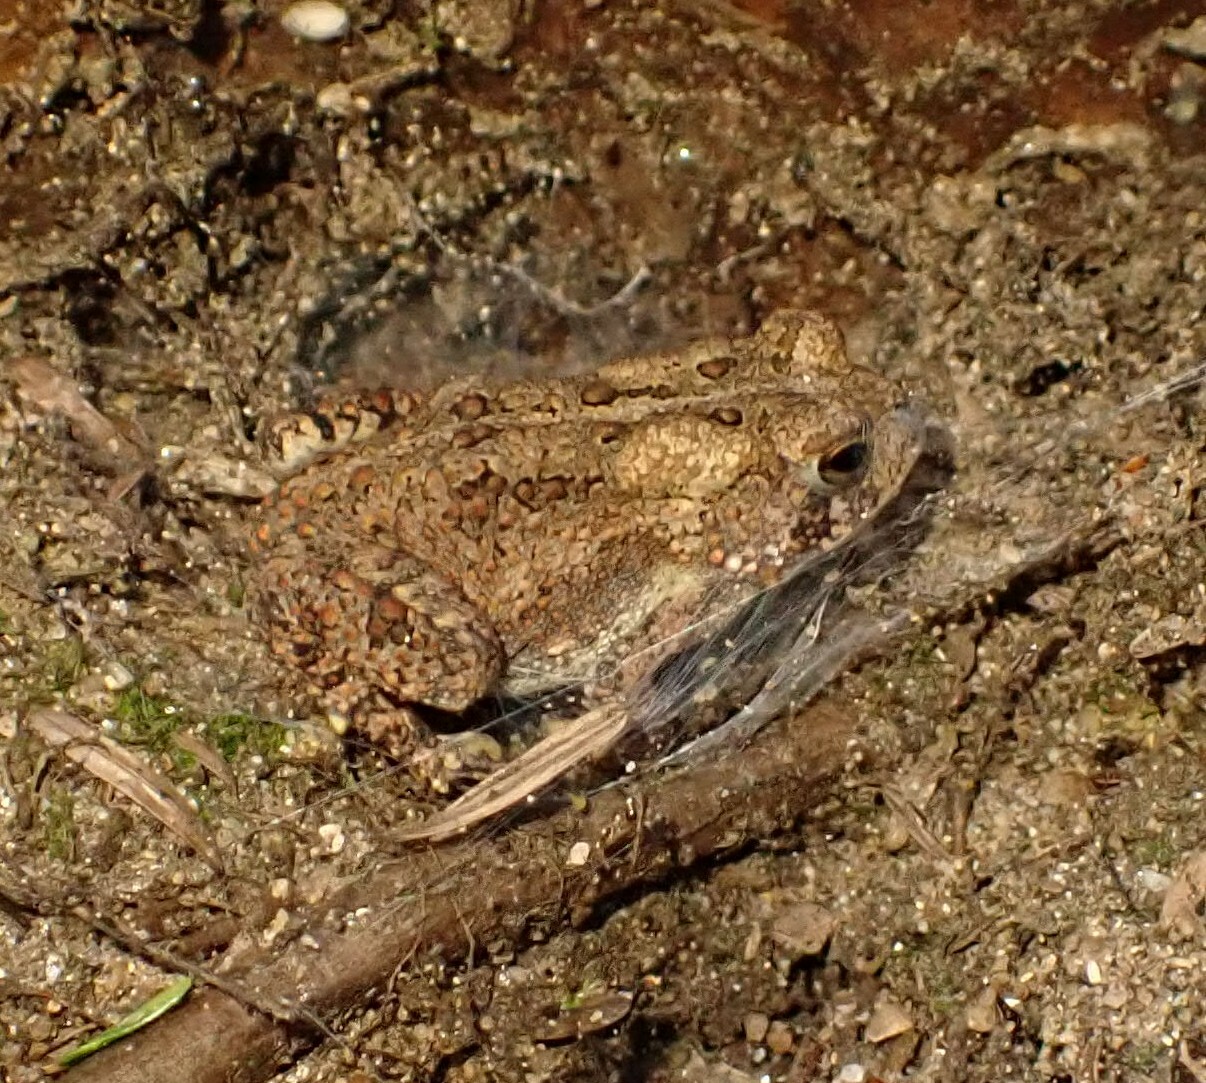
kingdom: Animalia
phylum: Chordata
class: Amphibia
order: Anura
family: Bufonidae
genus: Anaxyrus
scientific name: Anaxyrus americanus
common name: American toad
